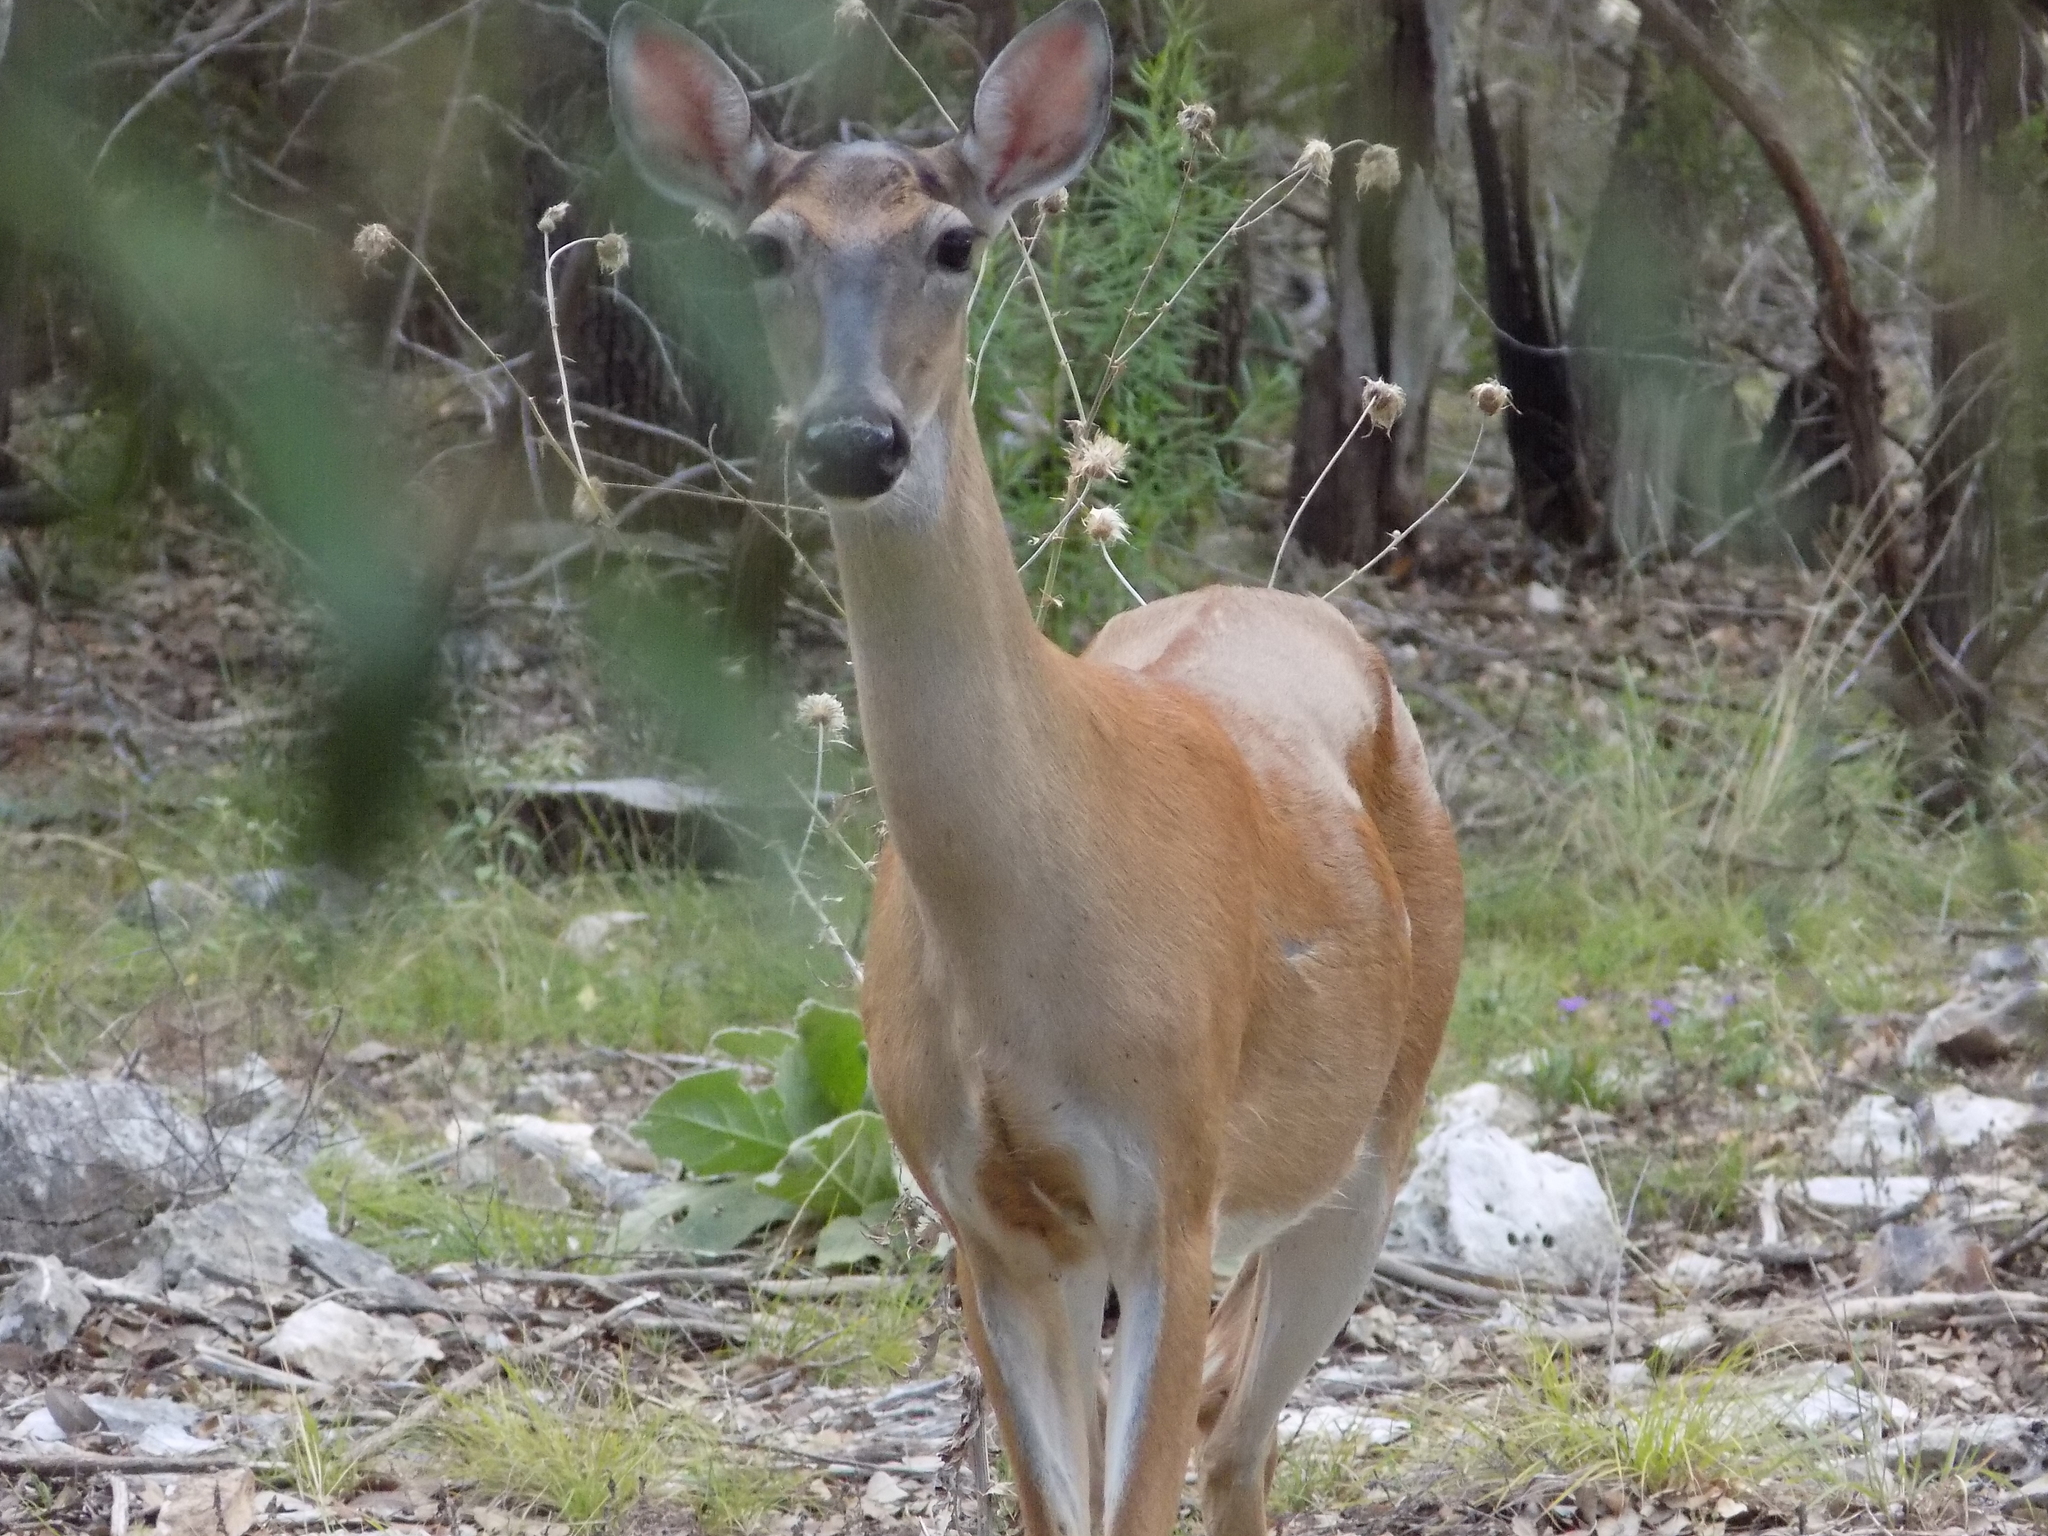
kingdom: Animalia
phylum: Chordata
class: Mammalia
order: Artiodactyla
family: Cervidae
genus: Odocoileus
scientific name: Odocoileus virginianus
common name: White-tailed deer
